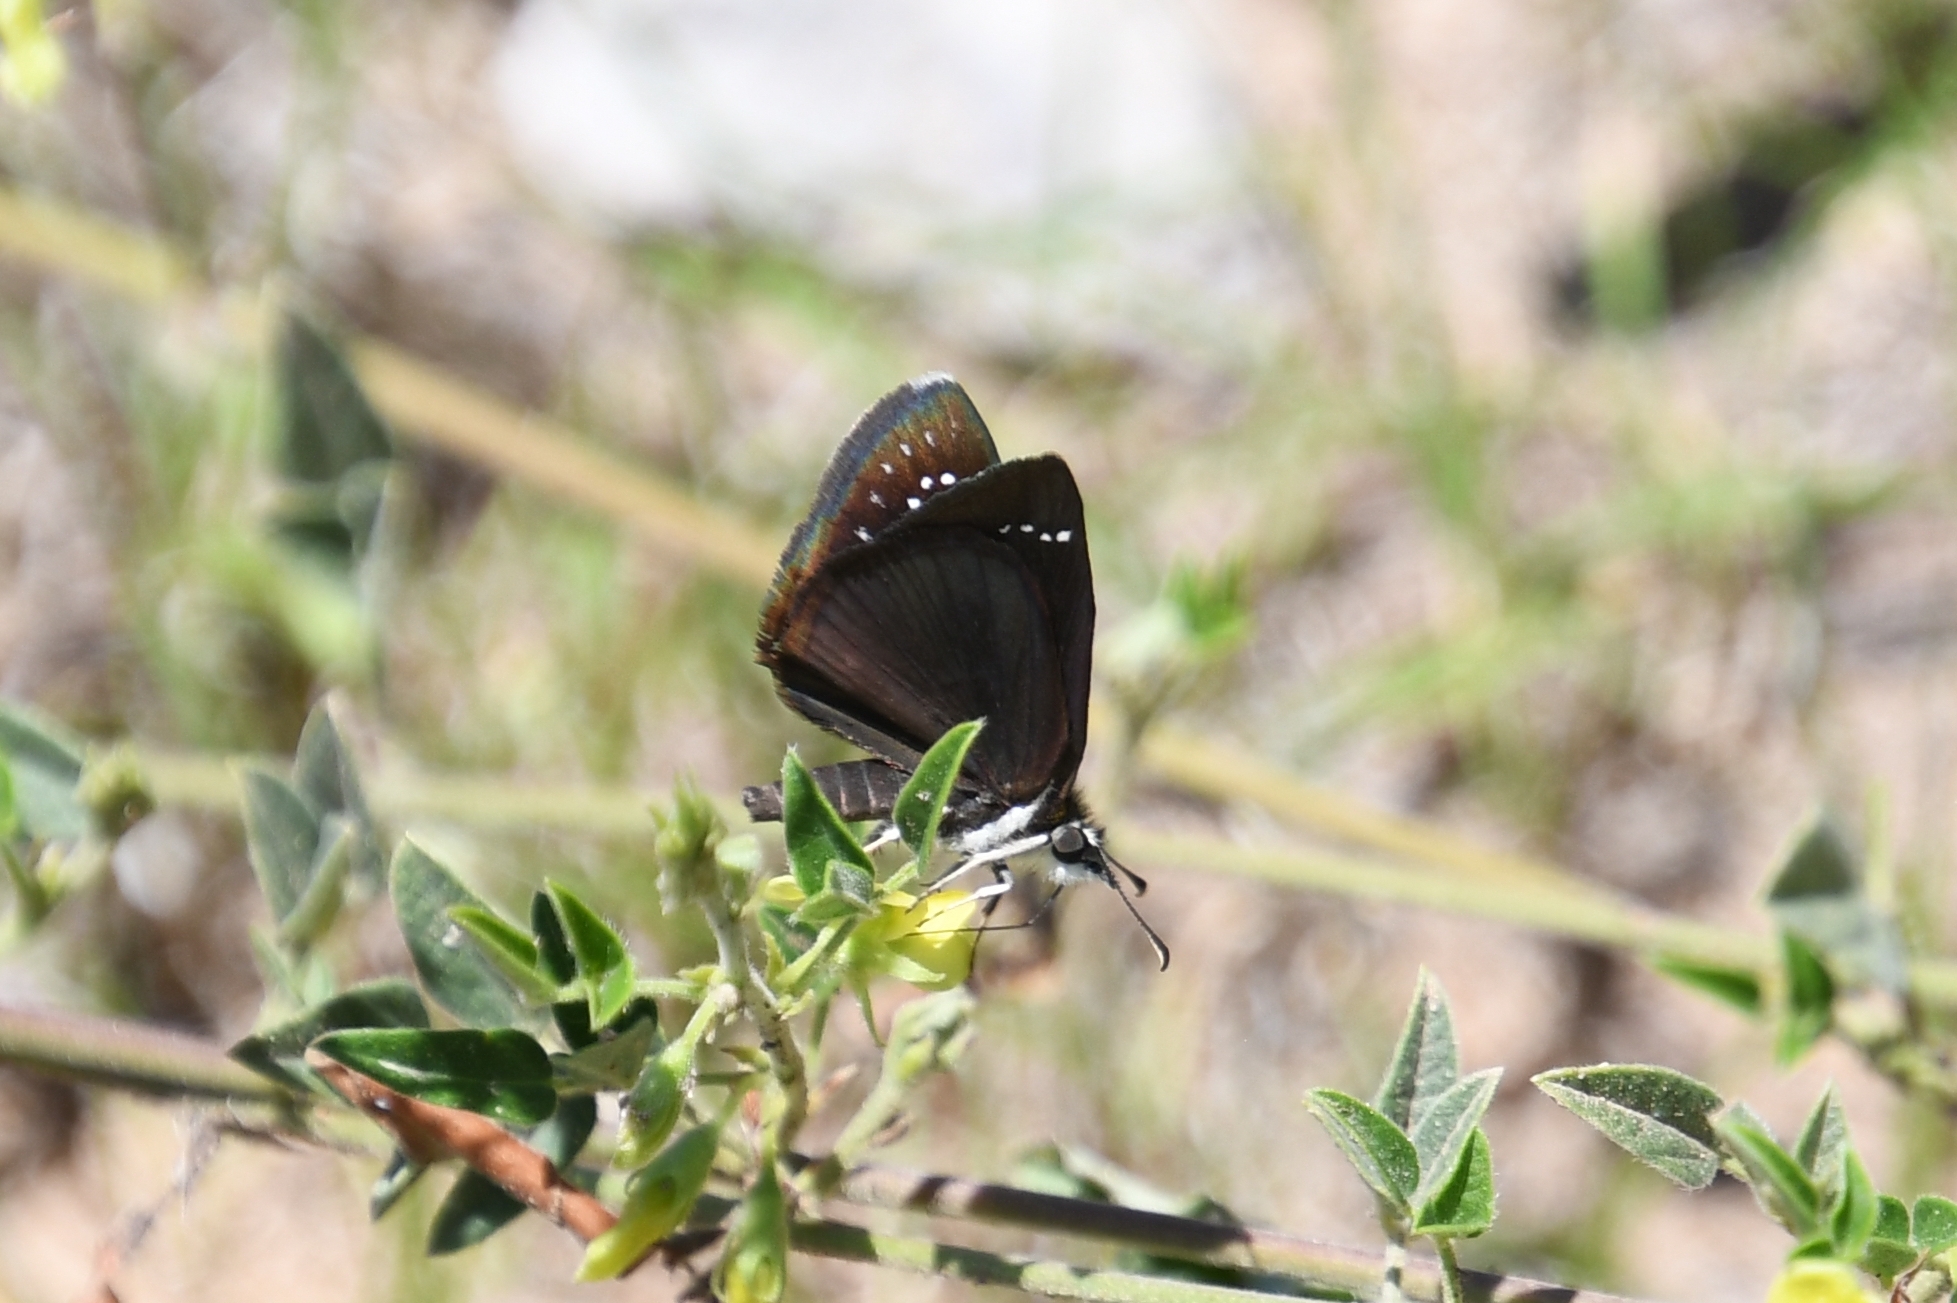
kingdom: Animalia
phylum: Arthropoda
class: Insecta
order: Lepidoptera
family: Hesperiidae
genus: Pholisora
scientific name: Pholisora catullus
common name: Common sootywing
